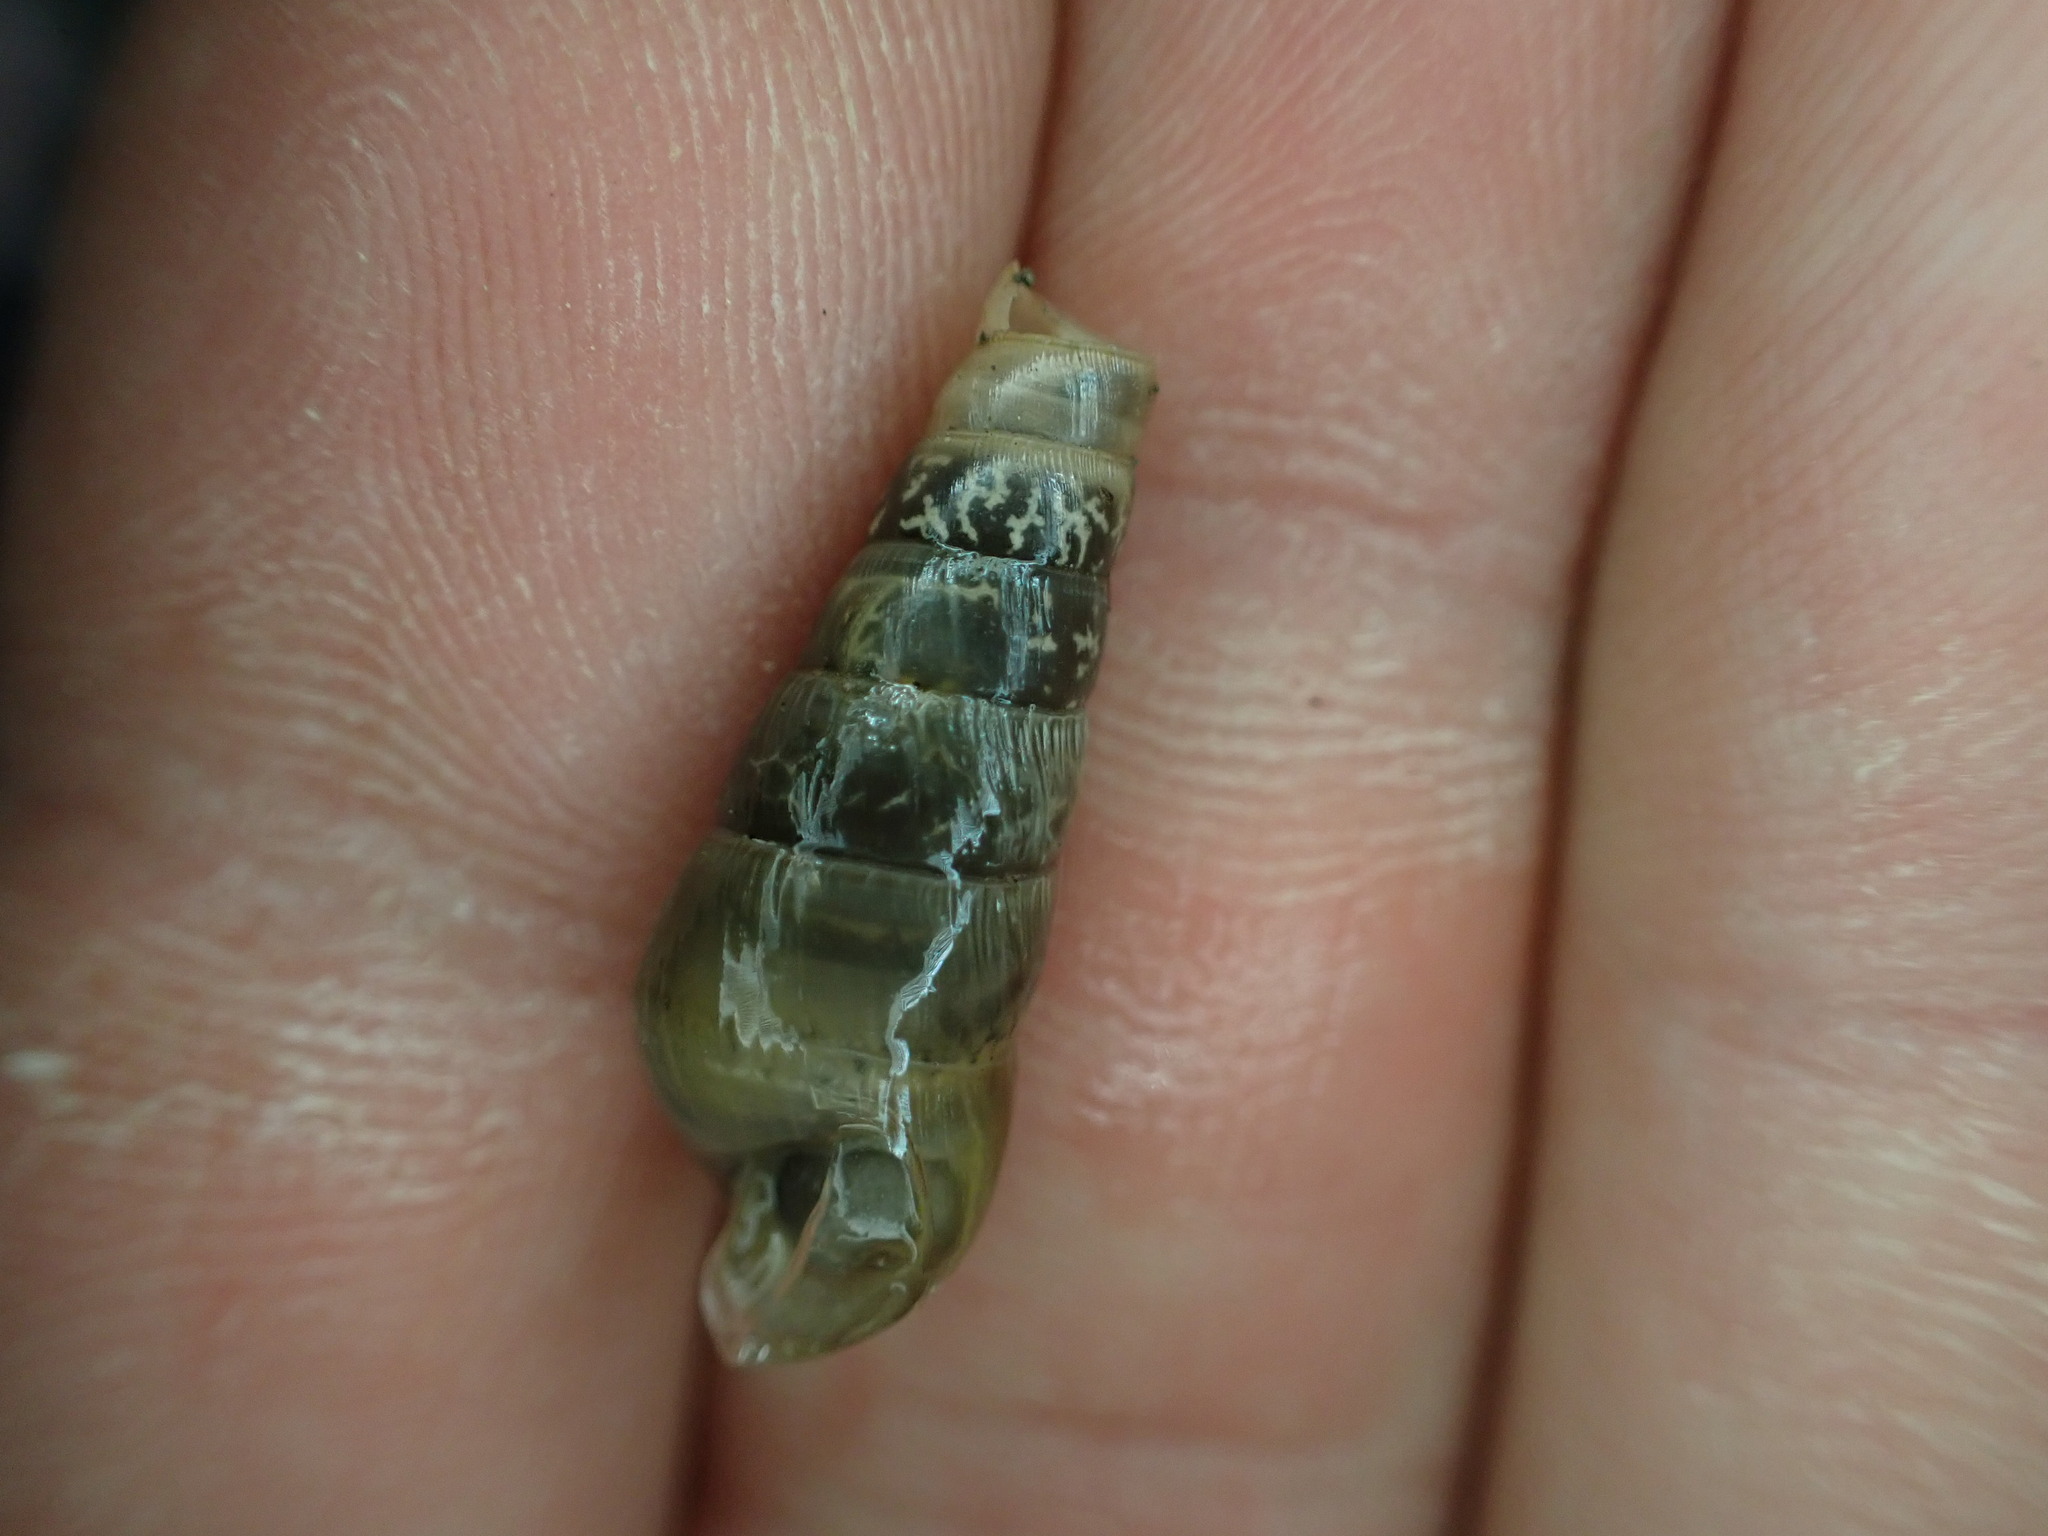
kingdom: Animalia
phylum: Mollusca
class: Gastropoda
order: Stylommatophora
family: Achatinidae
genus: Rumina
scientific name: Rumina decollata
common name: Decollate snail
